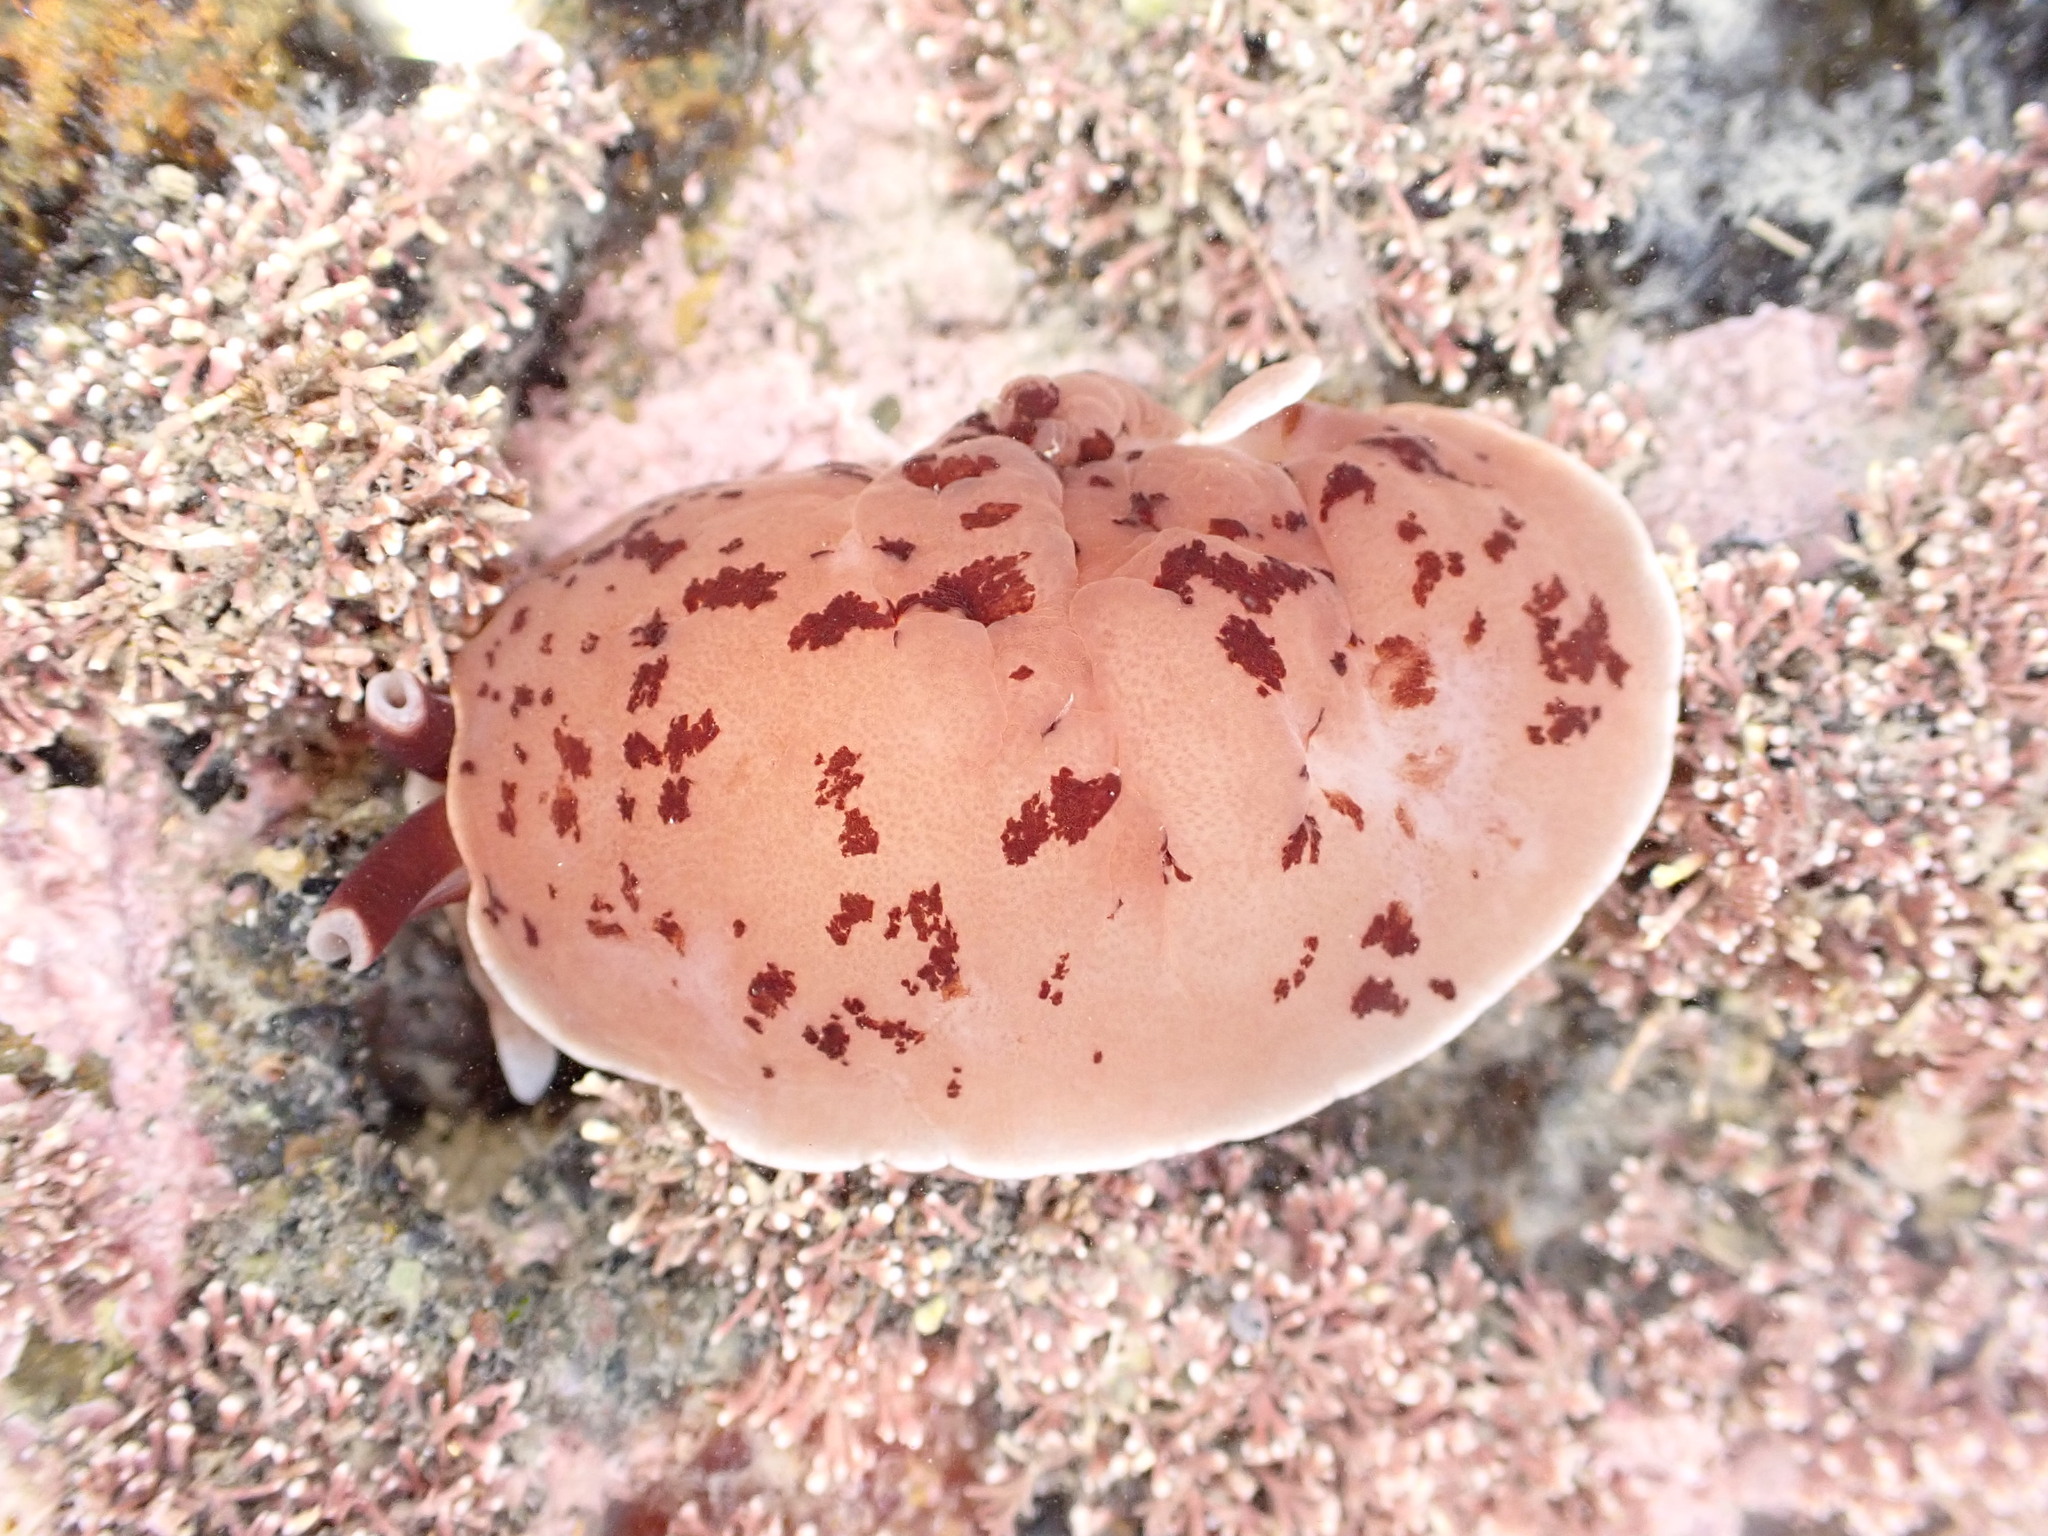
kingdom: Animalia
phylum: Mollusca
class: Gastropoda
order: Pleurobranchida
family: Pleurobranchidae
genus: Berthella
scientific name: Berthella ornata
